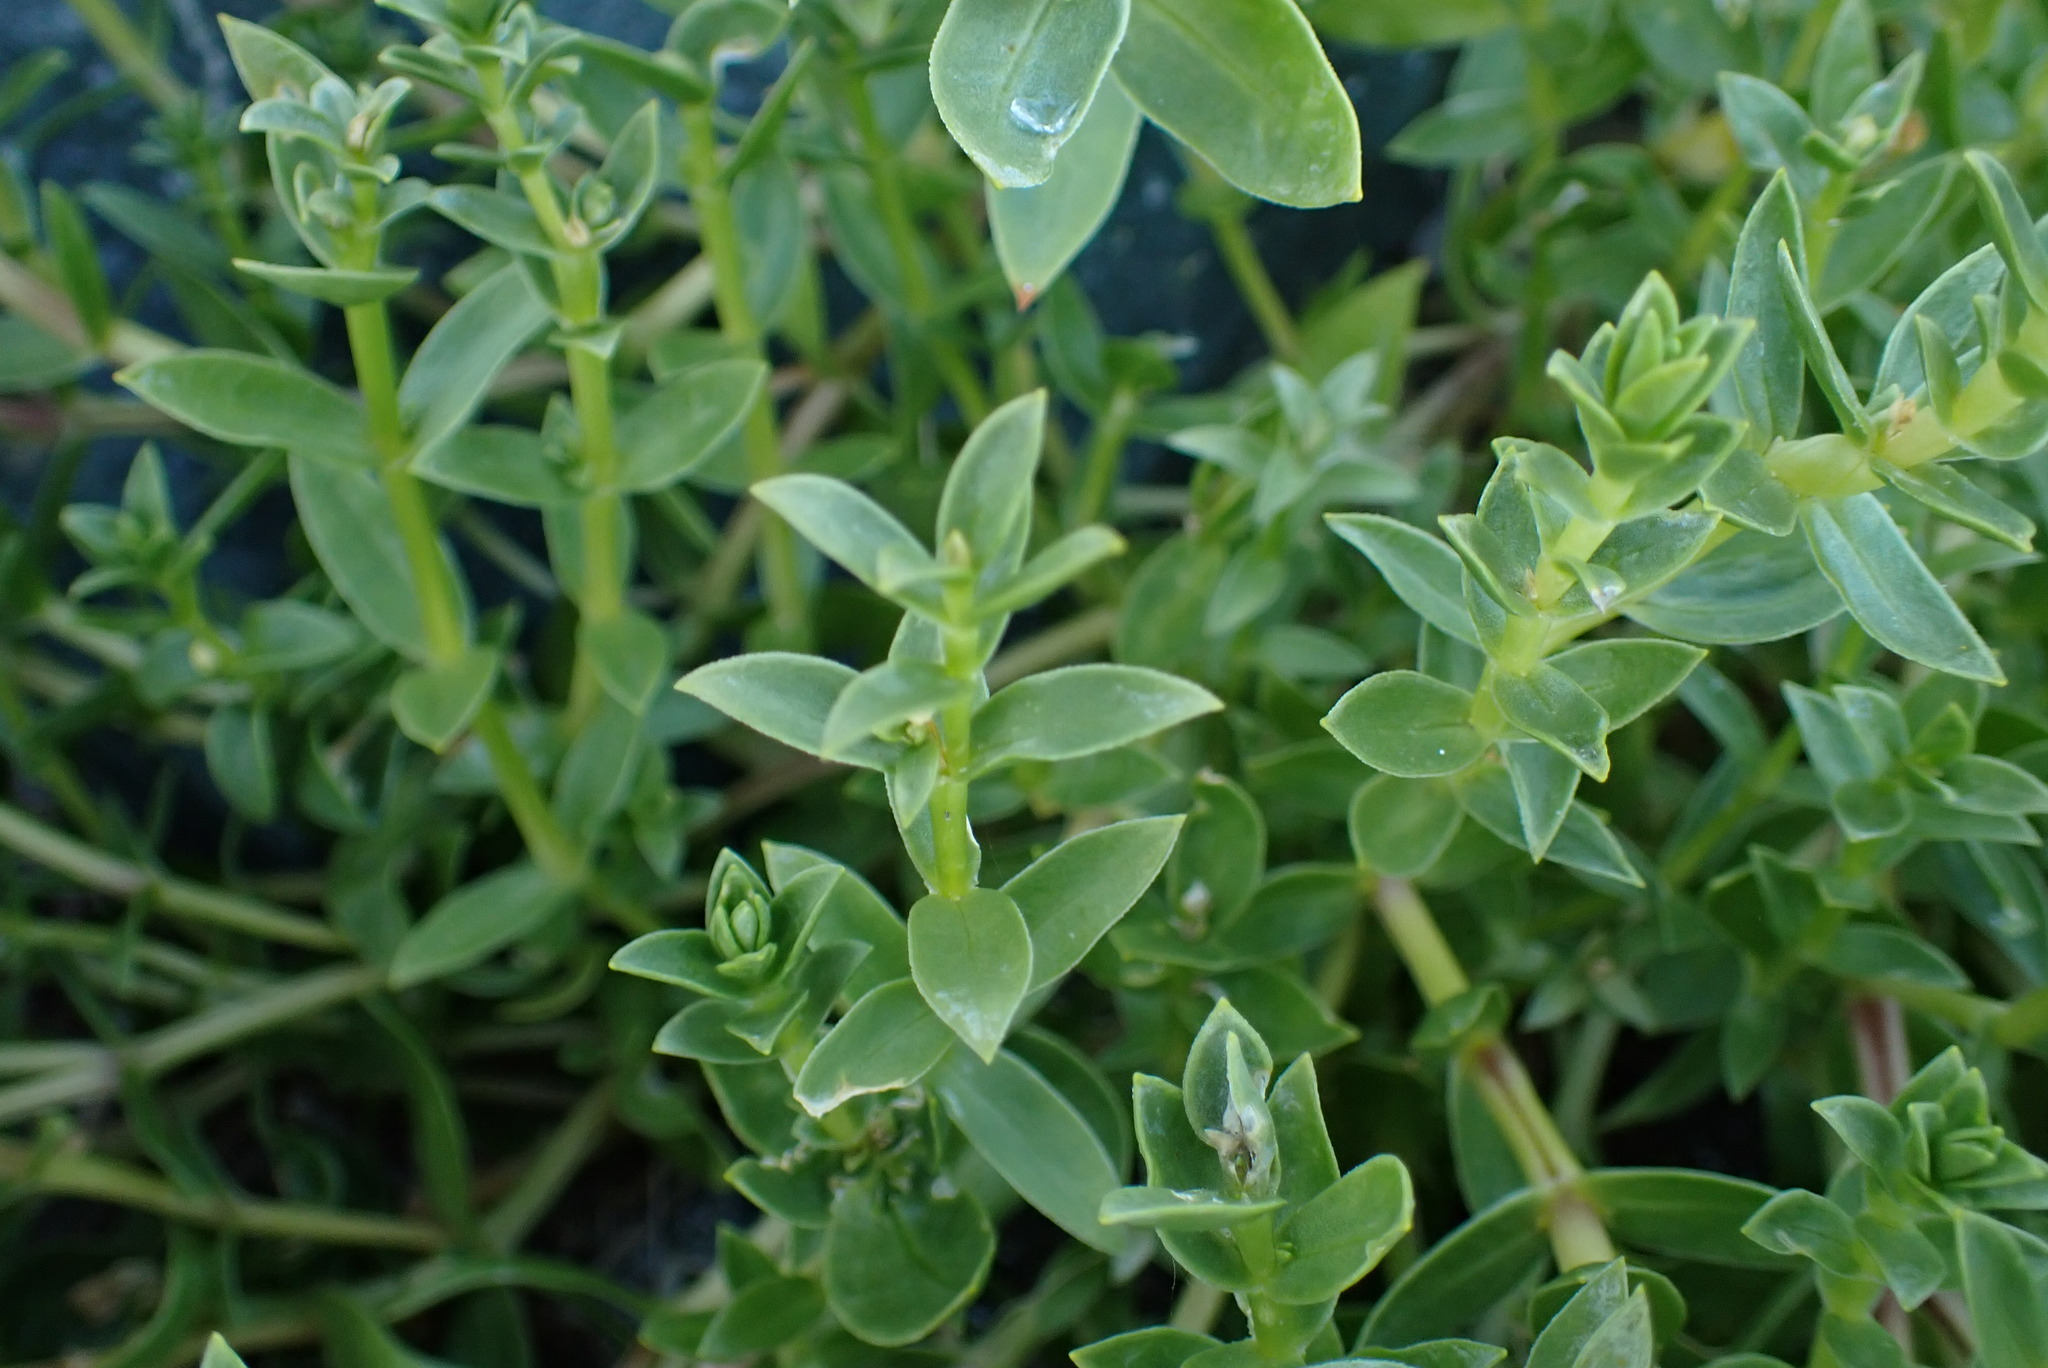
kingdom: Plantae
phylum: Tracheophyta
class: Magnoliopsida
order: Caryophyllales
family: Caryophyllaceae
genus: Honckenya
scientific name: Honckenya peploides
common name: Sea sandwort
